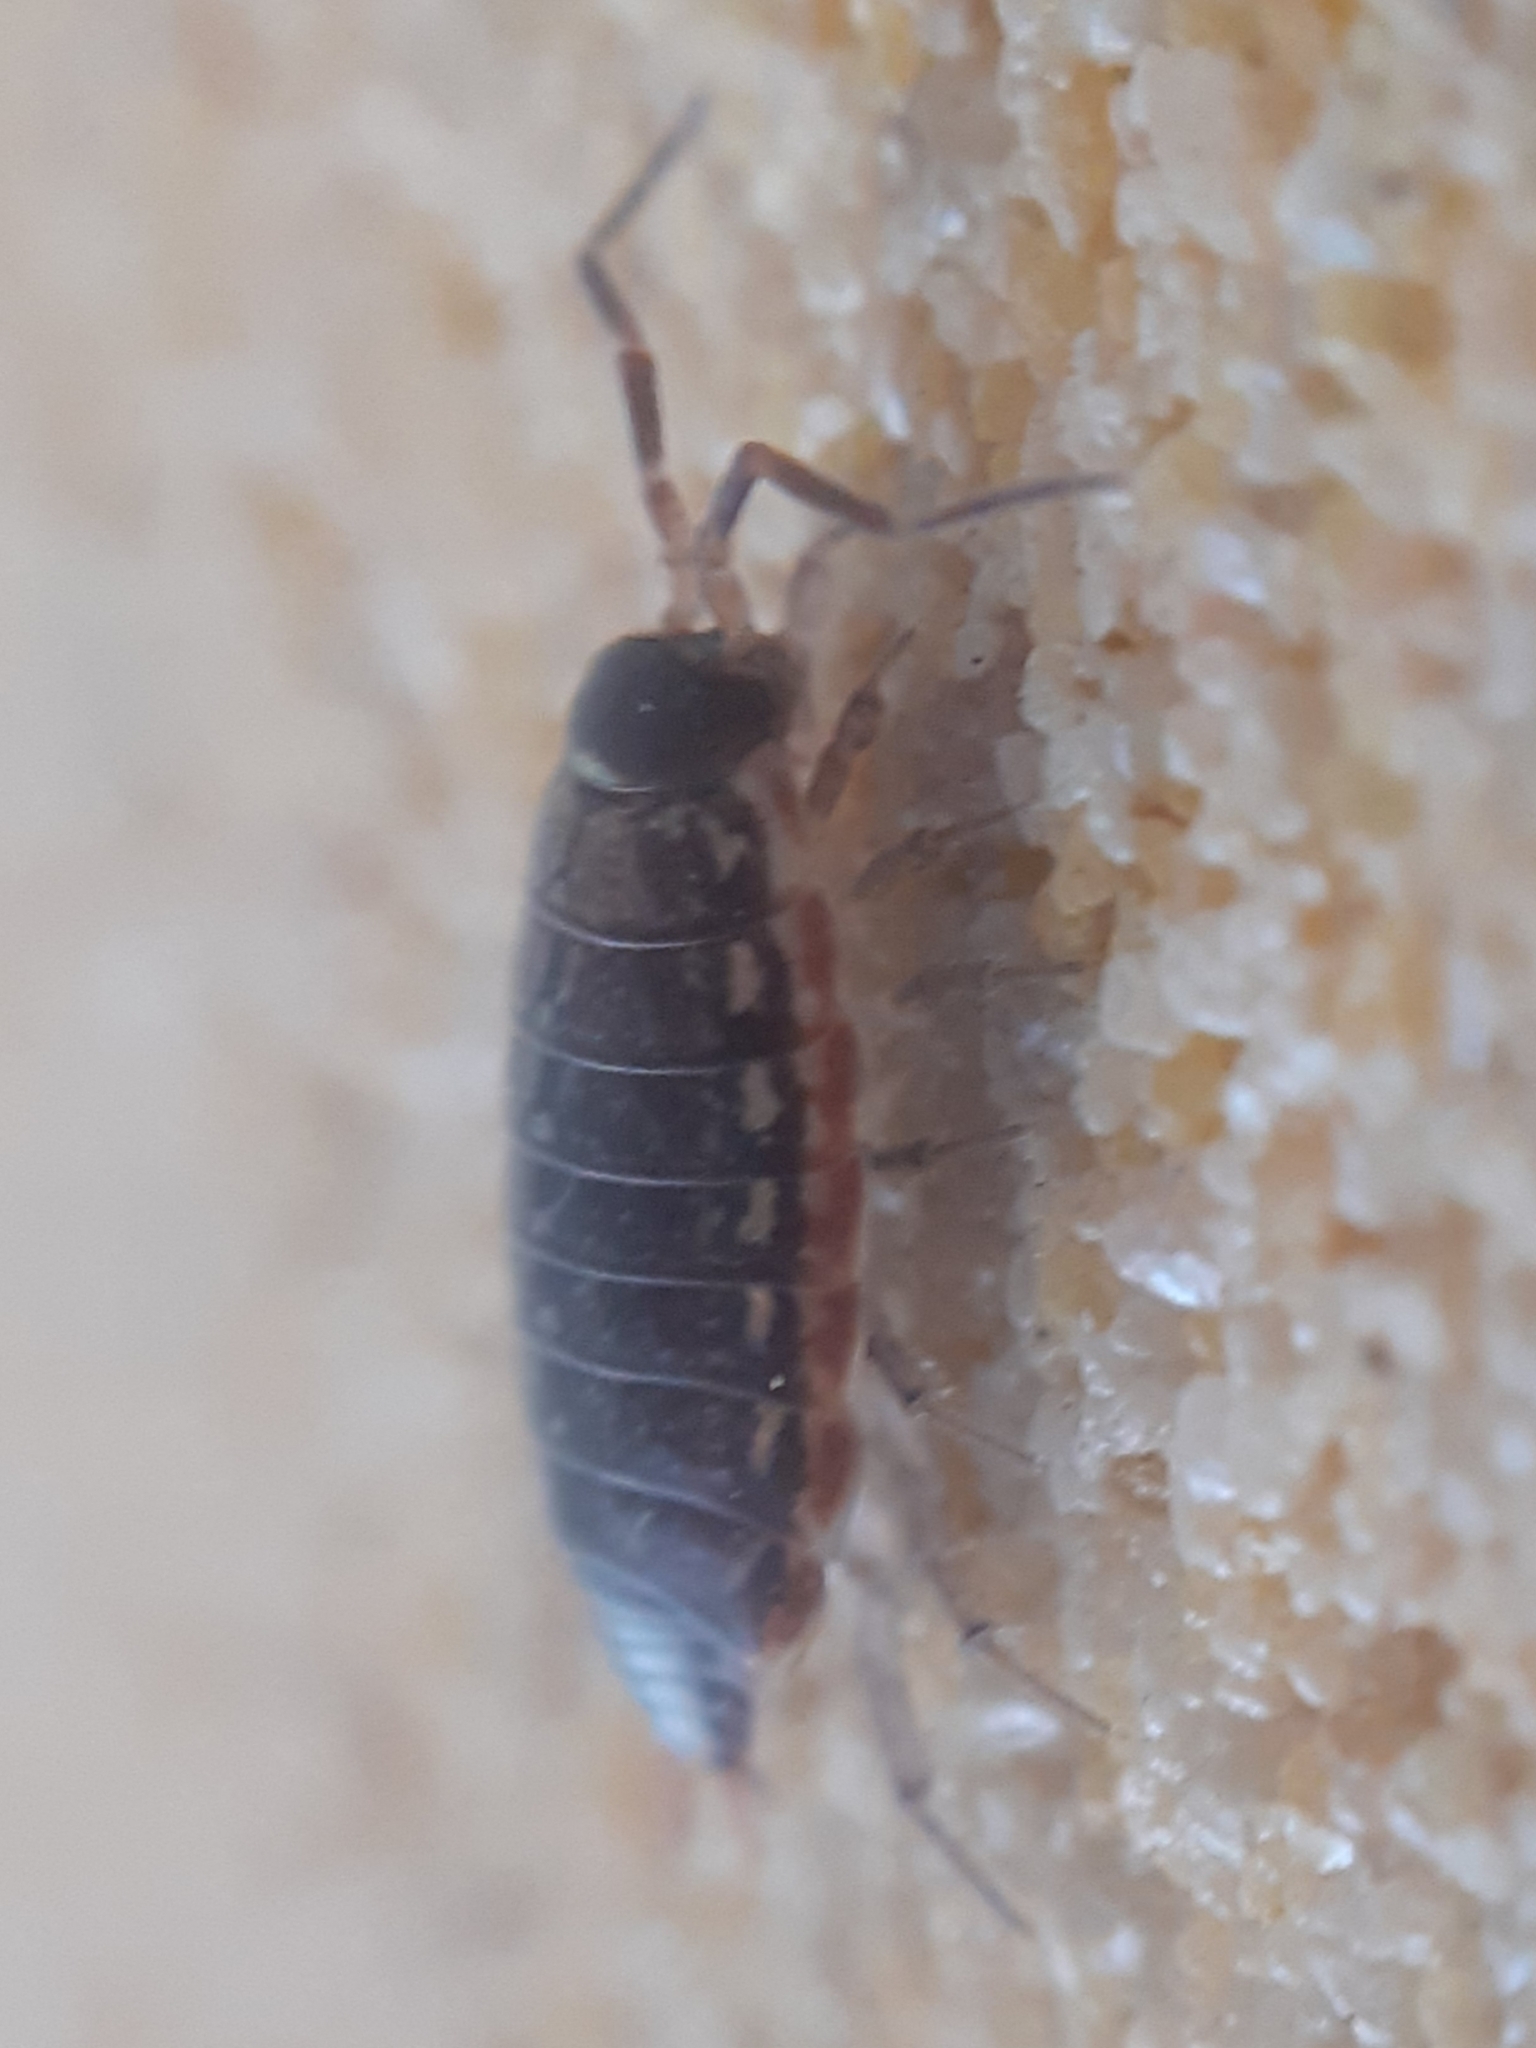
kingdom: Animalia
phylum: Arthropoda
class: Malacostraca
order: Isopoda
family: Philosciidae
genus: Philoscia
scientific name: Philoscia muscorum
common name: Common striped woodlouse
